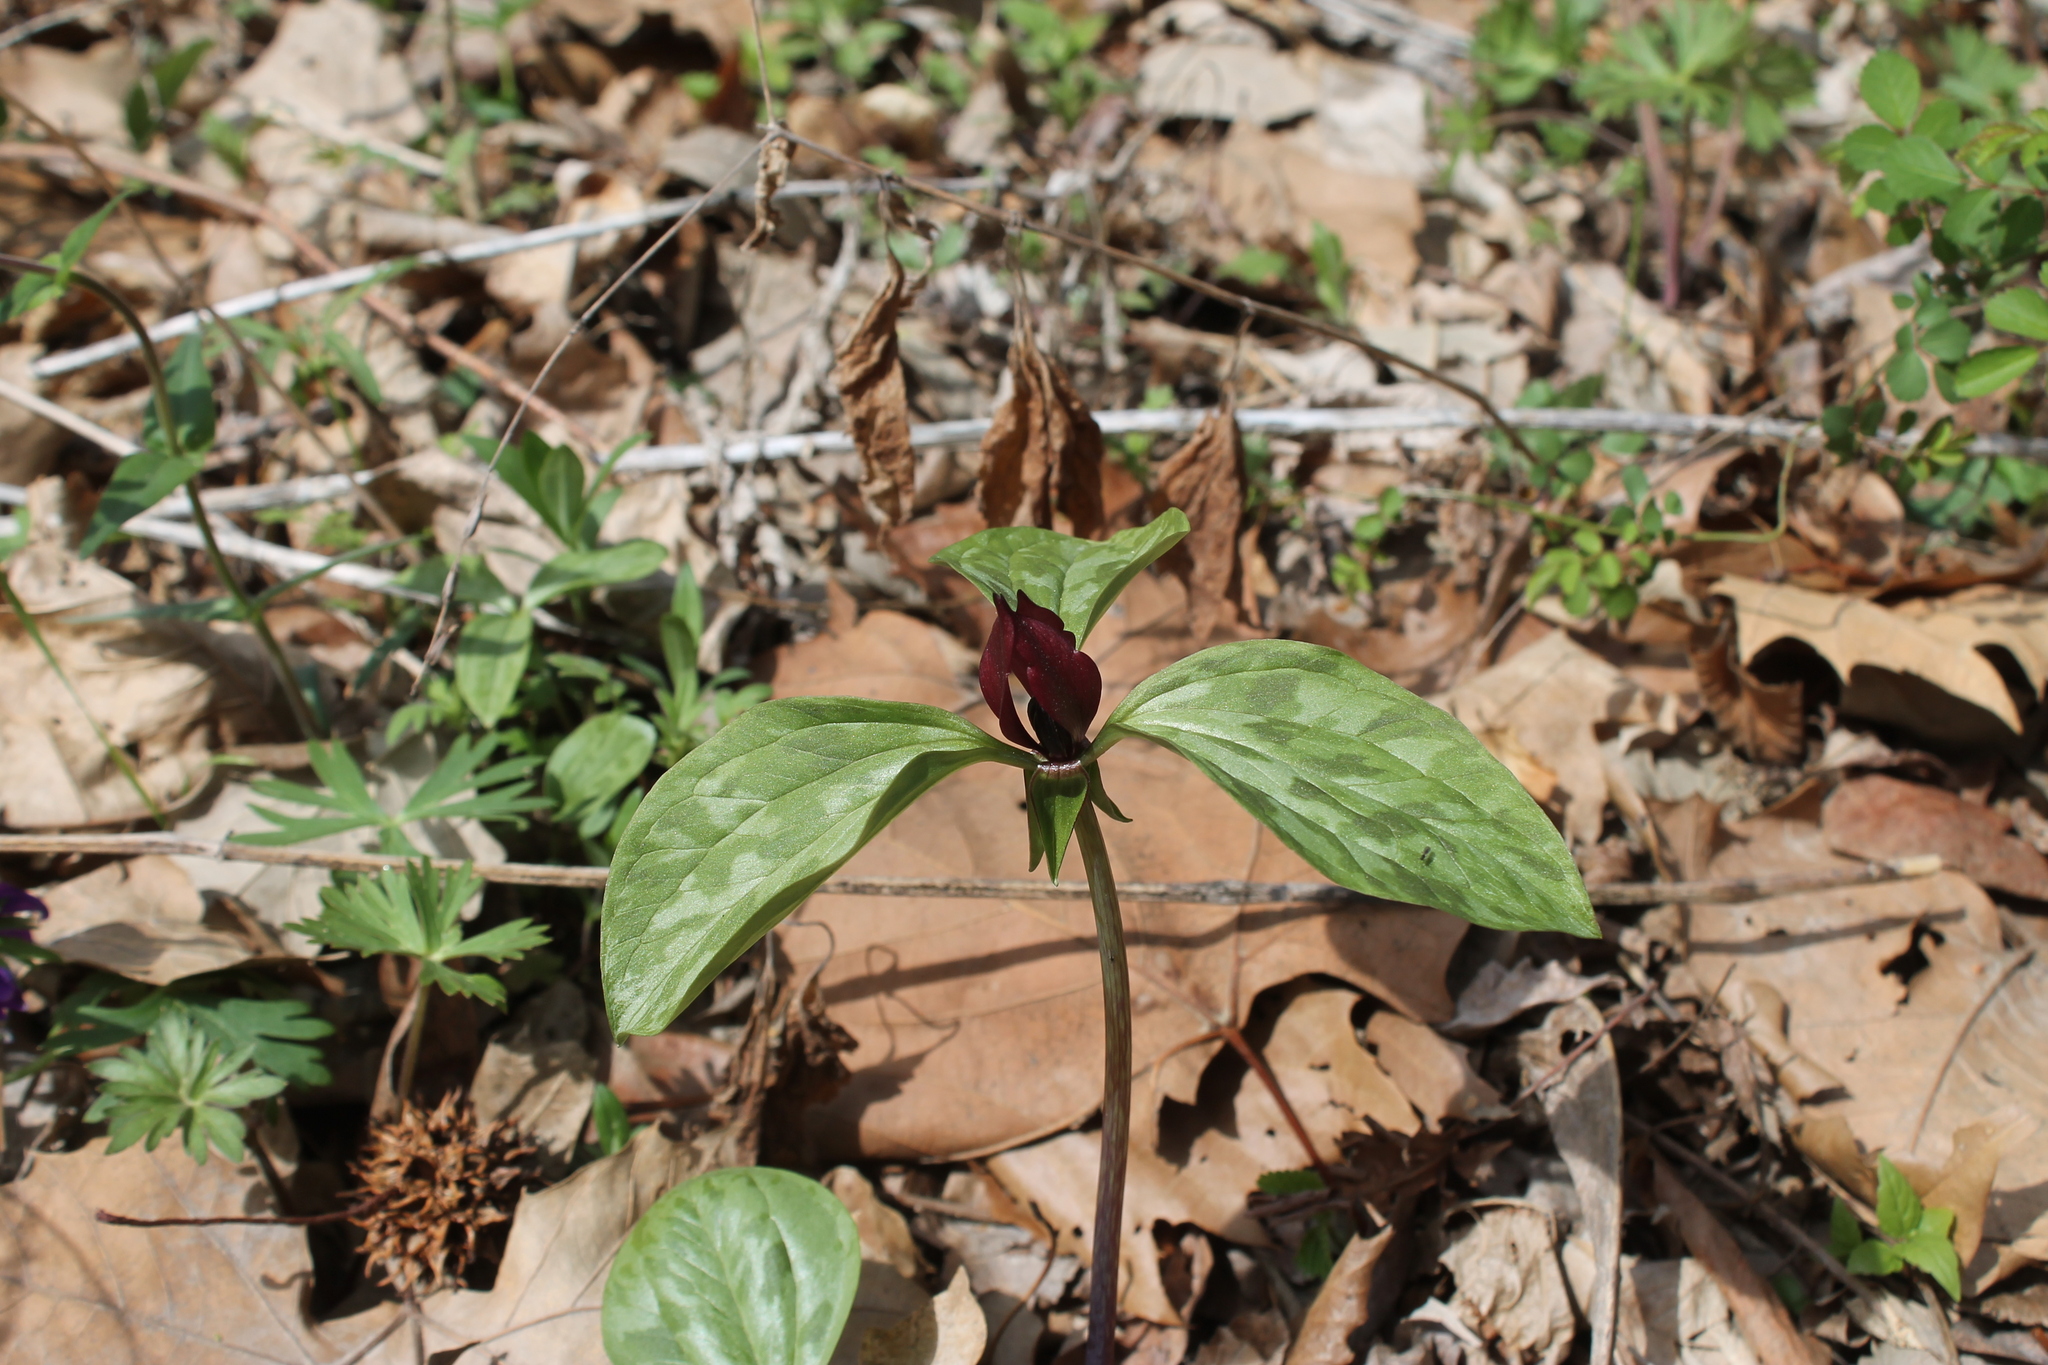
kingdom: Plantae
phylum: Tracheophyta
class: Liliopsida
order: Liliales
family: Melanthiaceae
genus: Trillium
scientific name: Trillium recurvatum
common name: Bloody butcher
